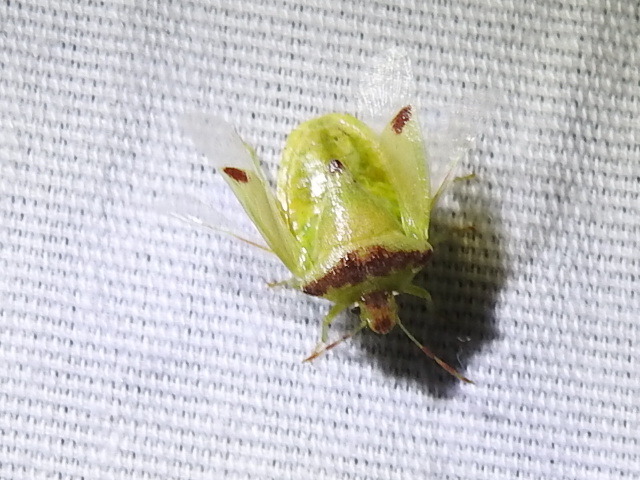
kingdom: Animalia
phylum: Arthropoda
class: Insecta
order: Hemiptera
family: Pentatomidae
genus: Thyanta
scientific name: Thyanta maculata
